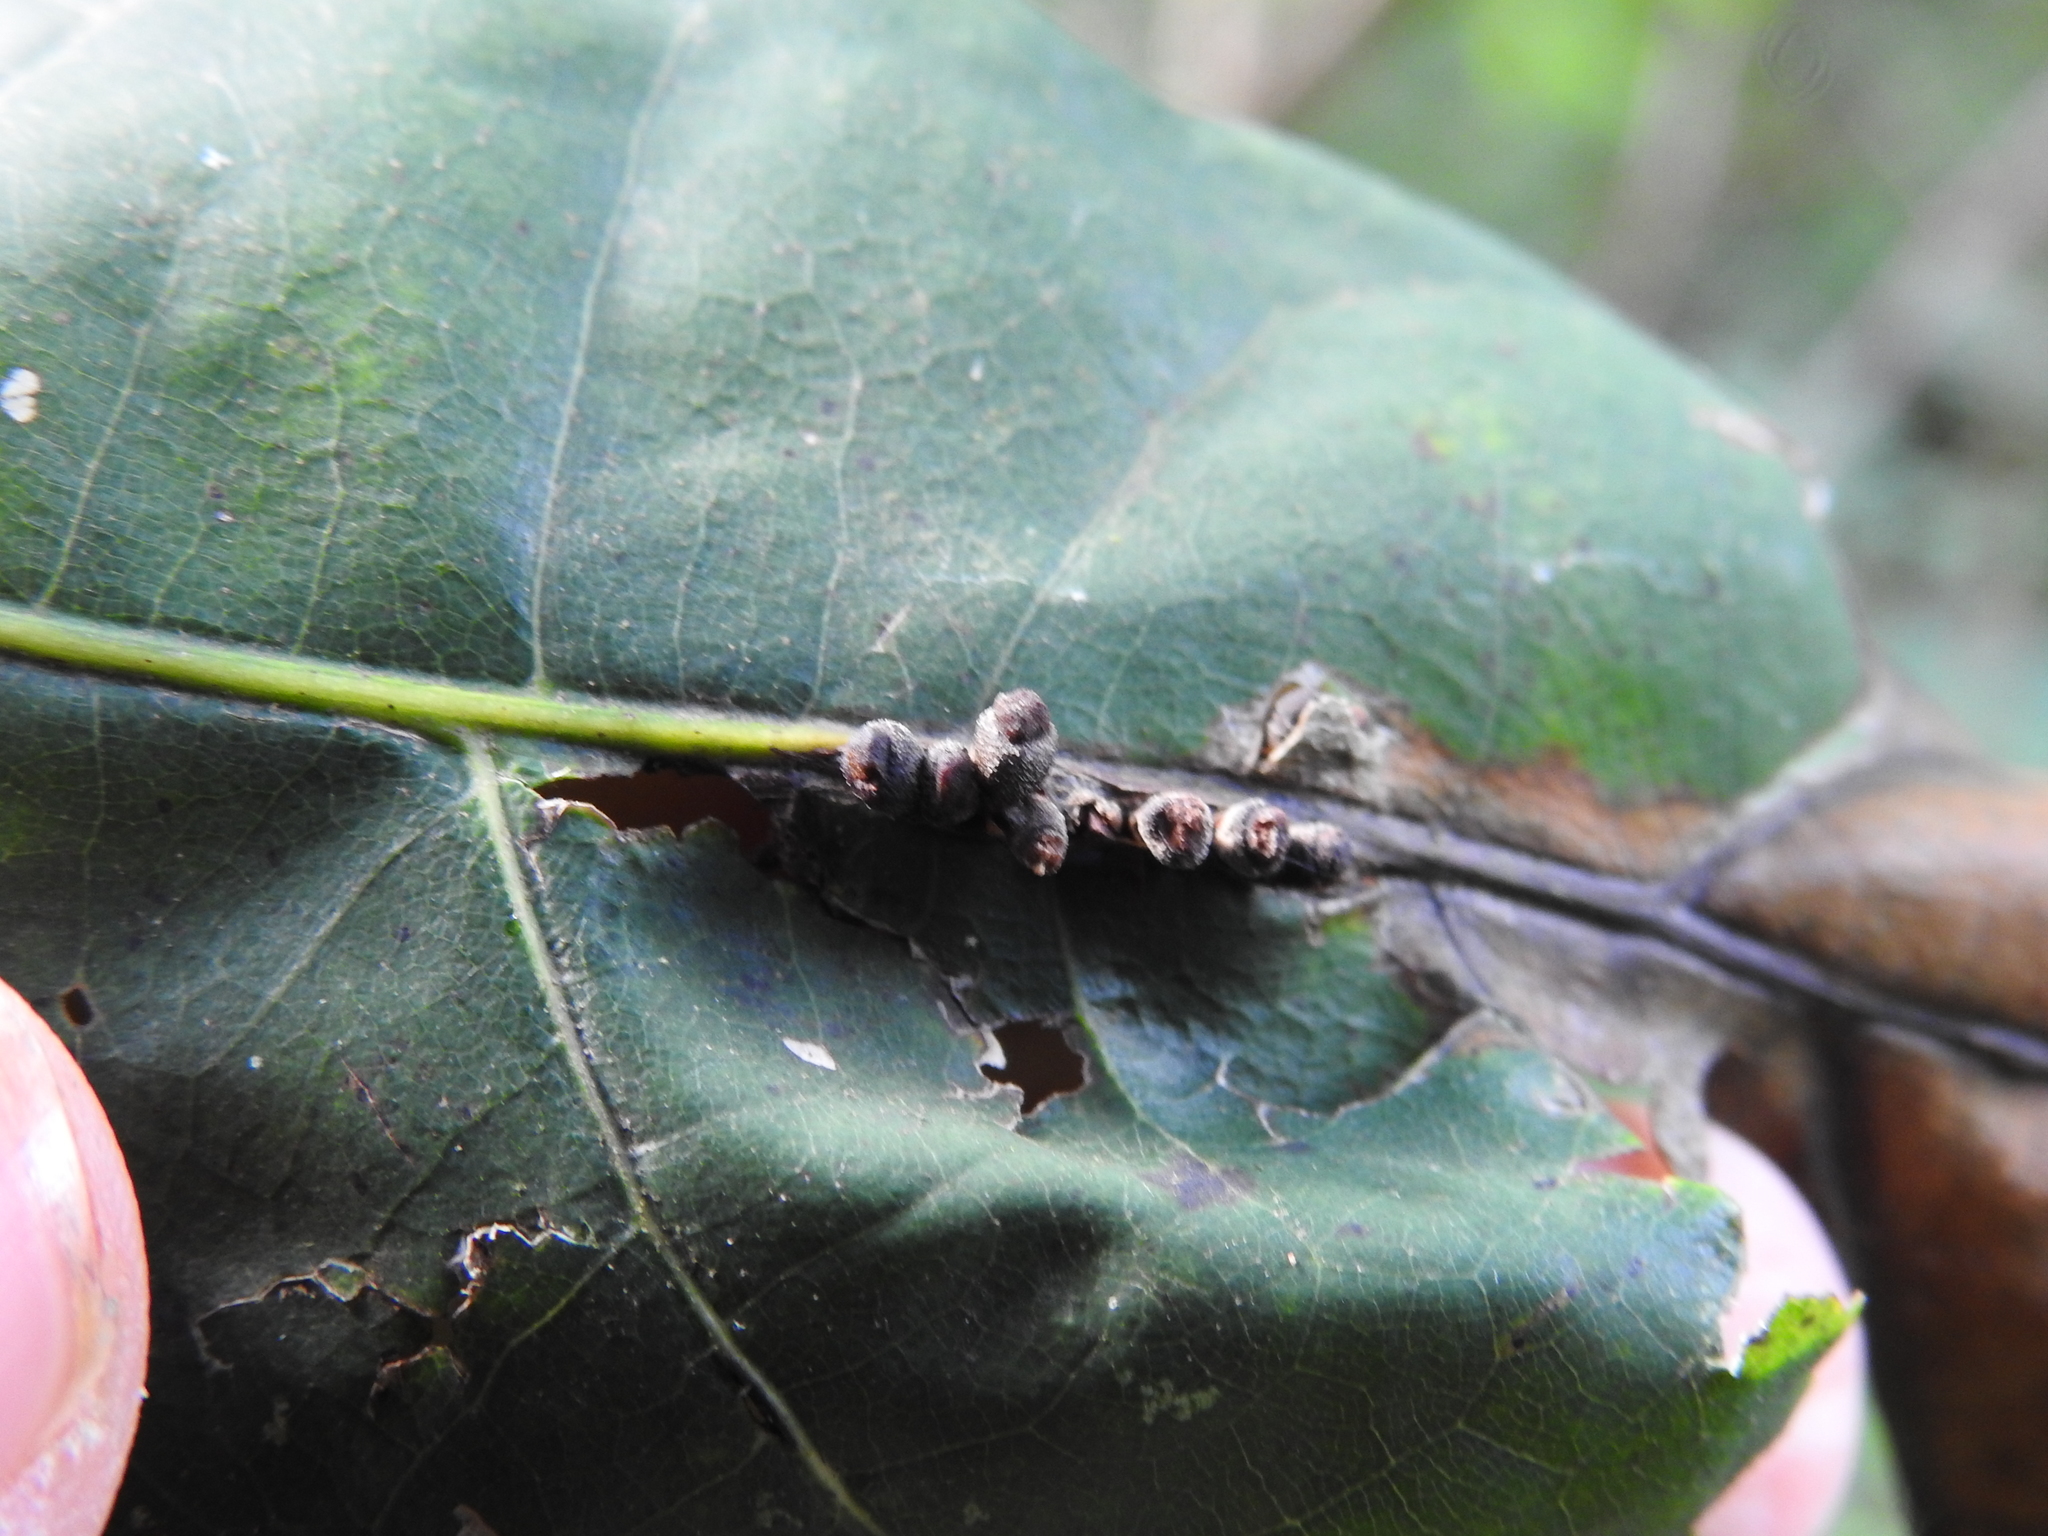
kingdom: Animalia
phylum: Arthropoda
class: Insecta
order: Hymenoptera
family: Cynipidae
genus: Kokkocynips
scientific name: Kokkocynips decidua
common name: Oak wheat gall
